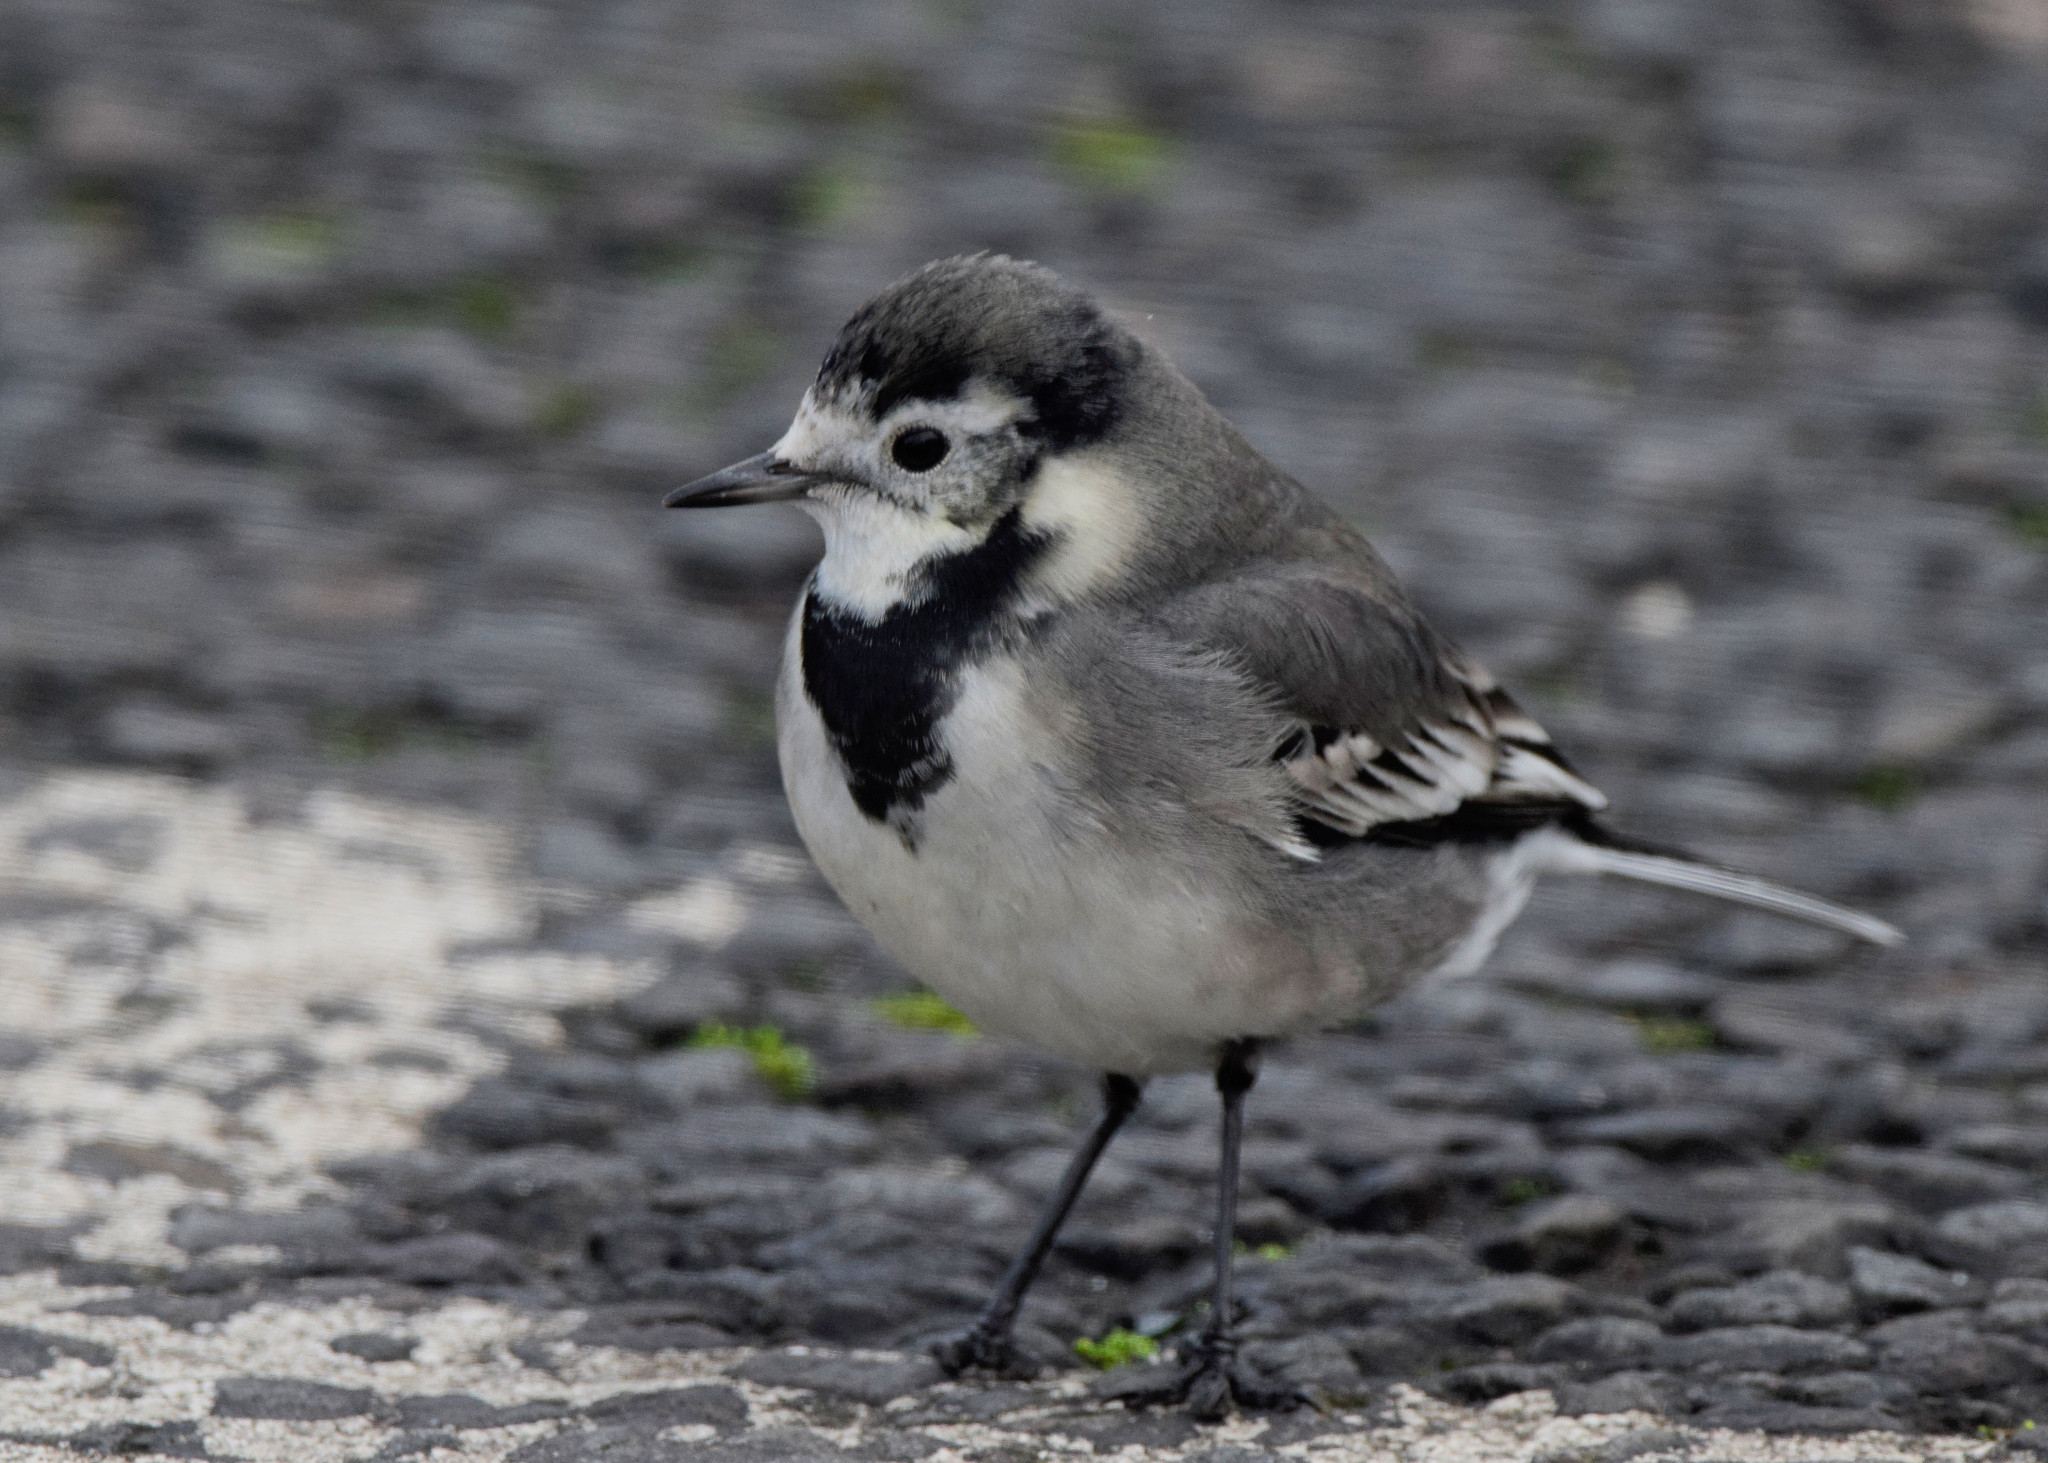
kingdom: Animalia
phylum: Chordata
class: Aves
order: Passeriformes
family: Motacillidae
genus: Motacilla
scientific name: Motacilla alba
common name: White wagtail
